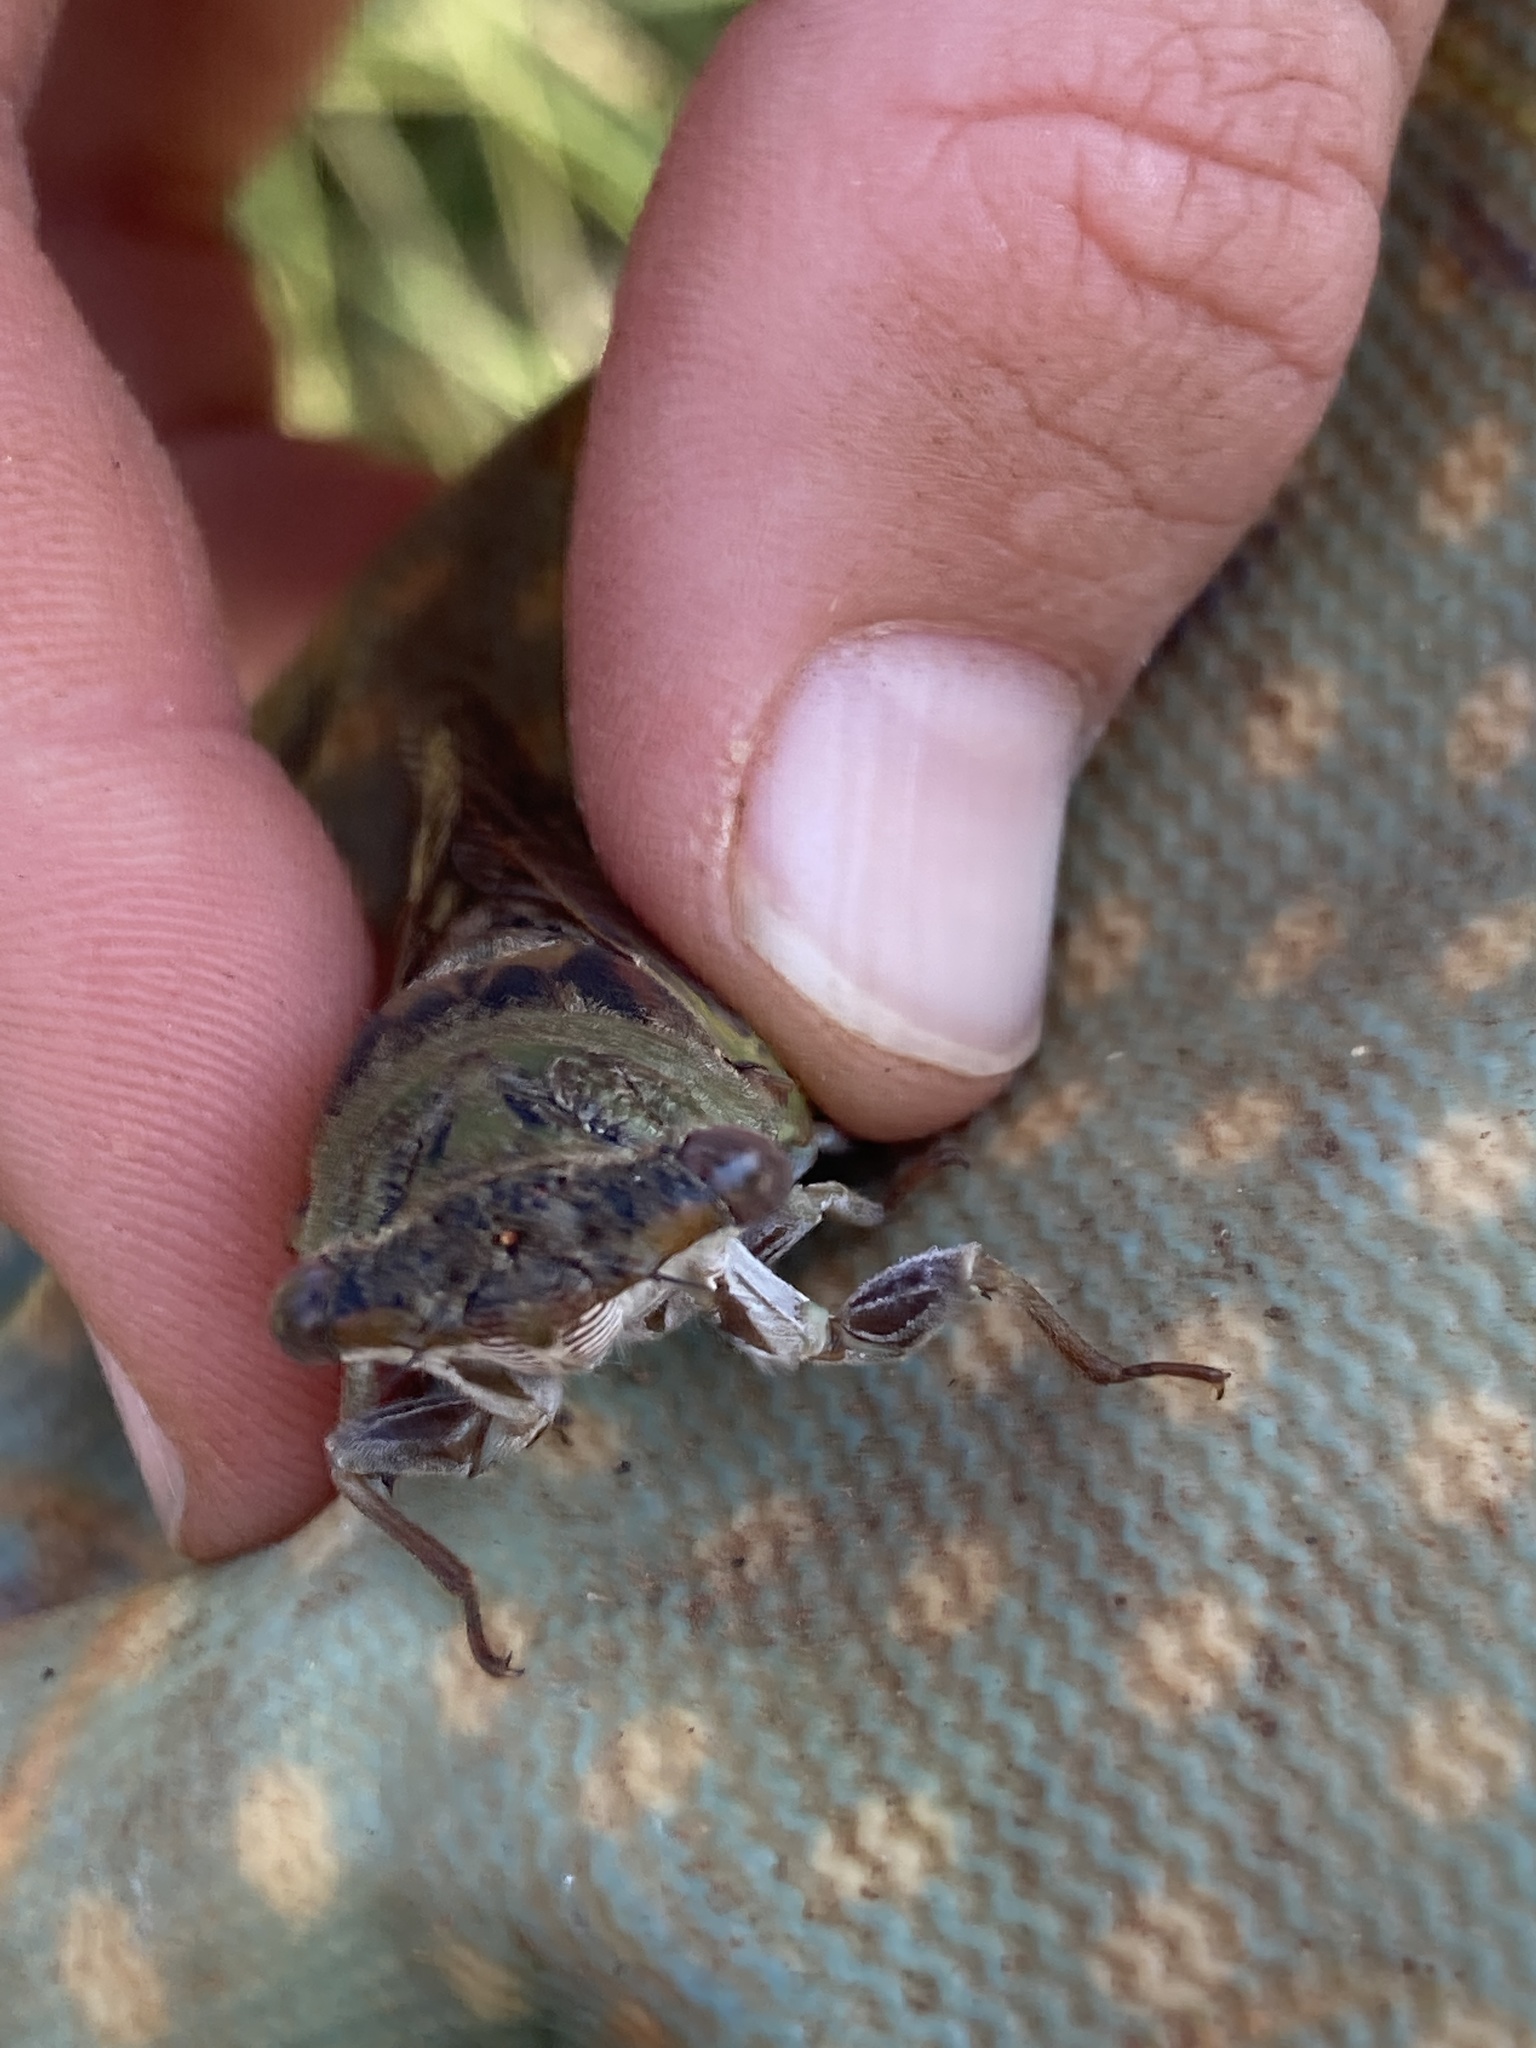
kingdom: Animalia
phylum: Arthropoda
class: Insecta
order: Hemiptera
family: Cicadidae
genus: Neotibicen
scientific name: Neotibicen aurifer
